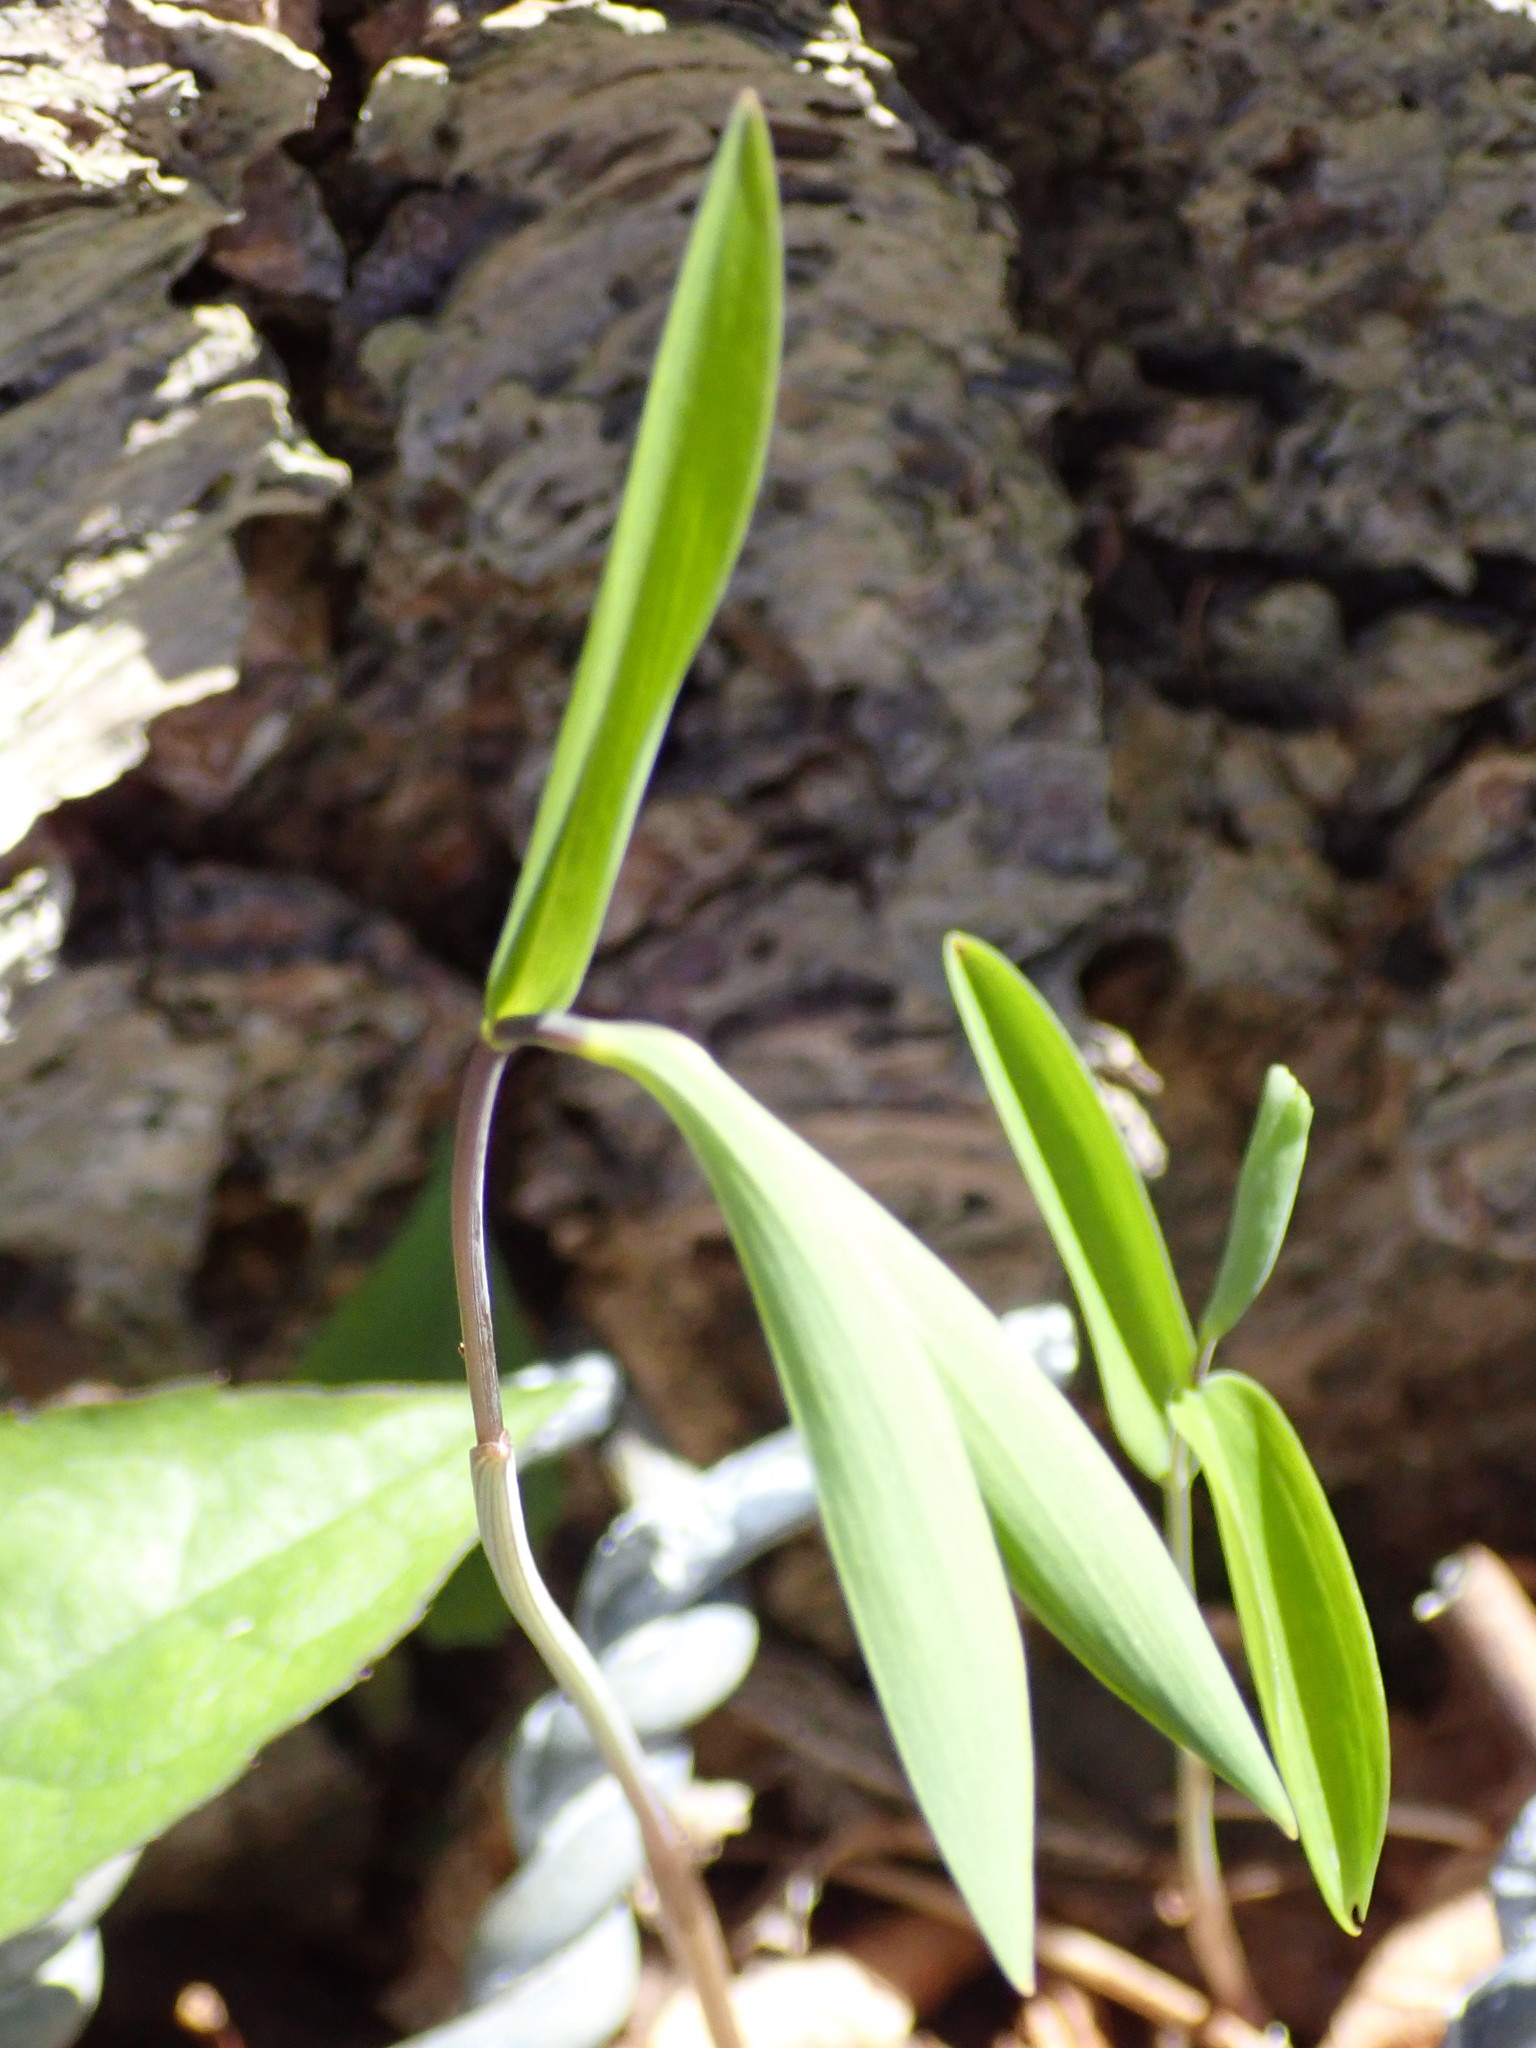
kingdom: Plantae
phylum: Tracheophyta
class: Liliopsida
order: Liliales
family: Colchicaceae
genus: Uvularia
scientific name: Uvularia sessilifolia
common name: Straw-lily
